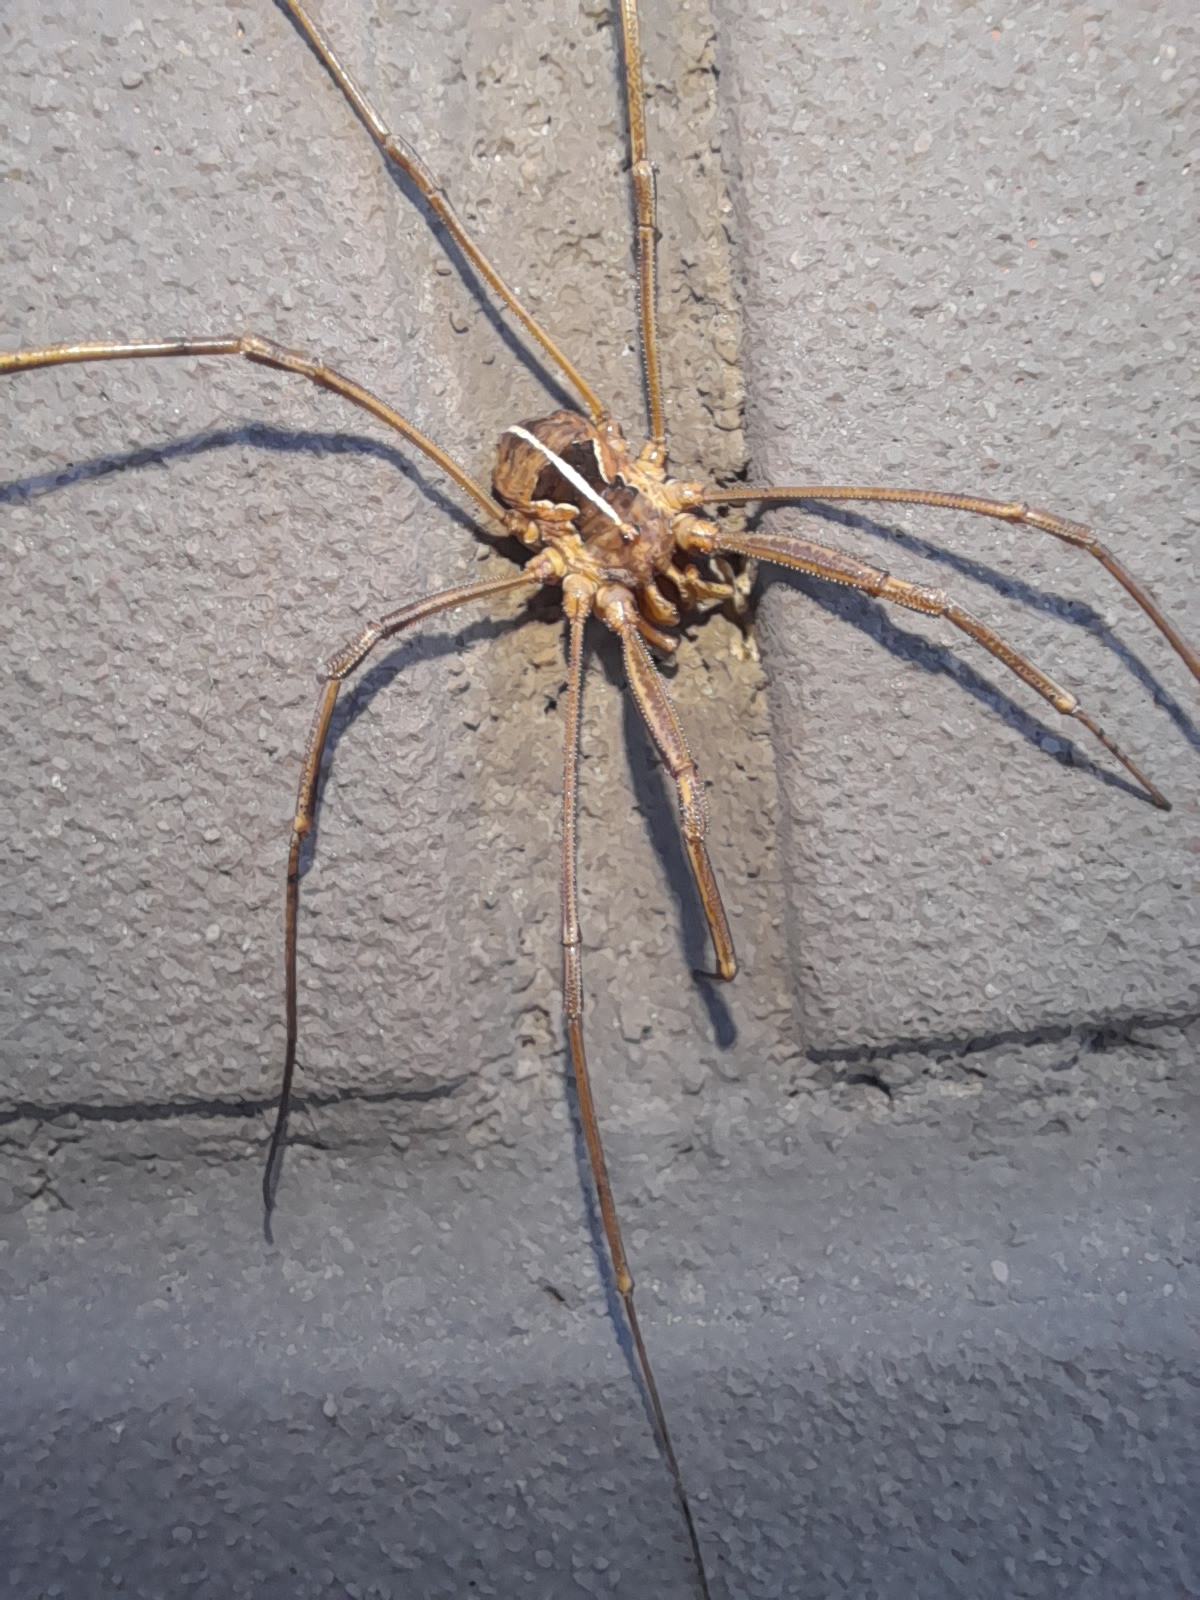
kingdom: Animalia
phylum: Arthropoda
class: Arachnida
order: Opiliones
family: Phalangiidae
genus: Metaphalangium
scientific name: Metaphalangium cirtanum
